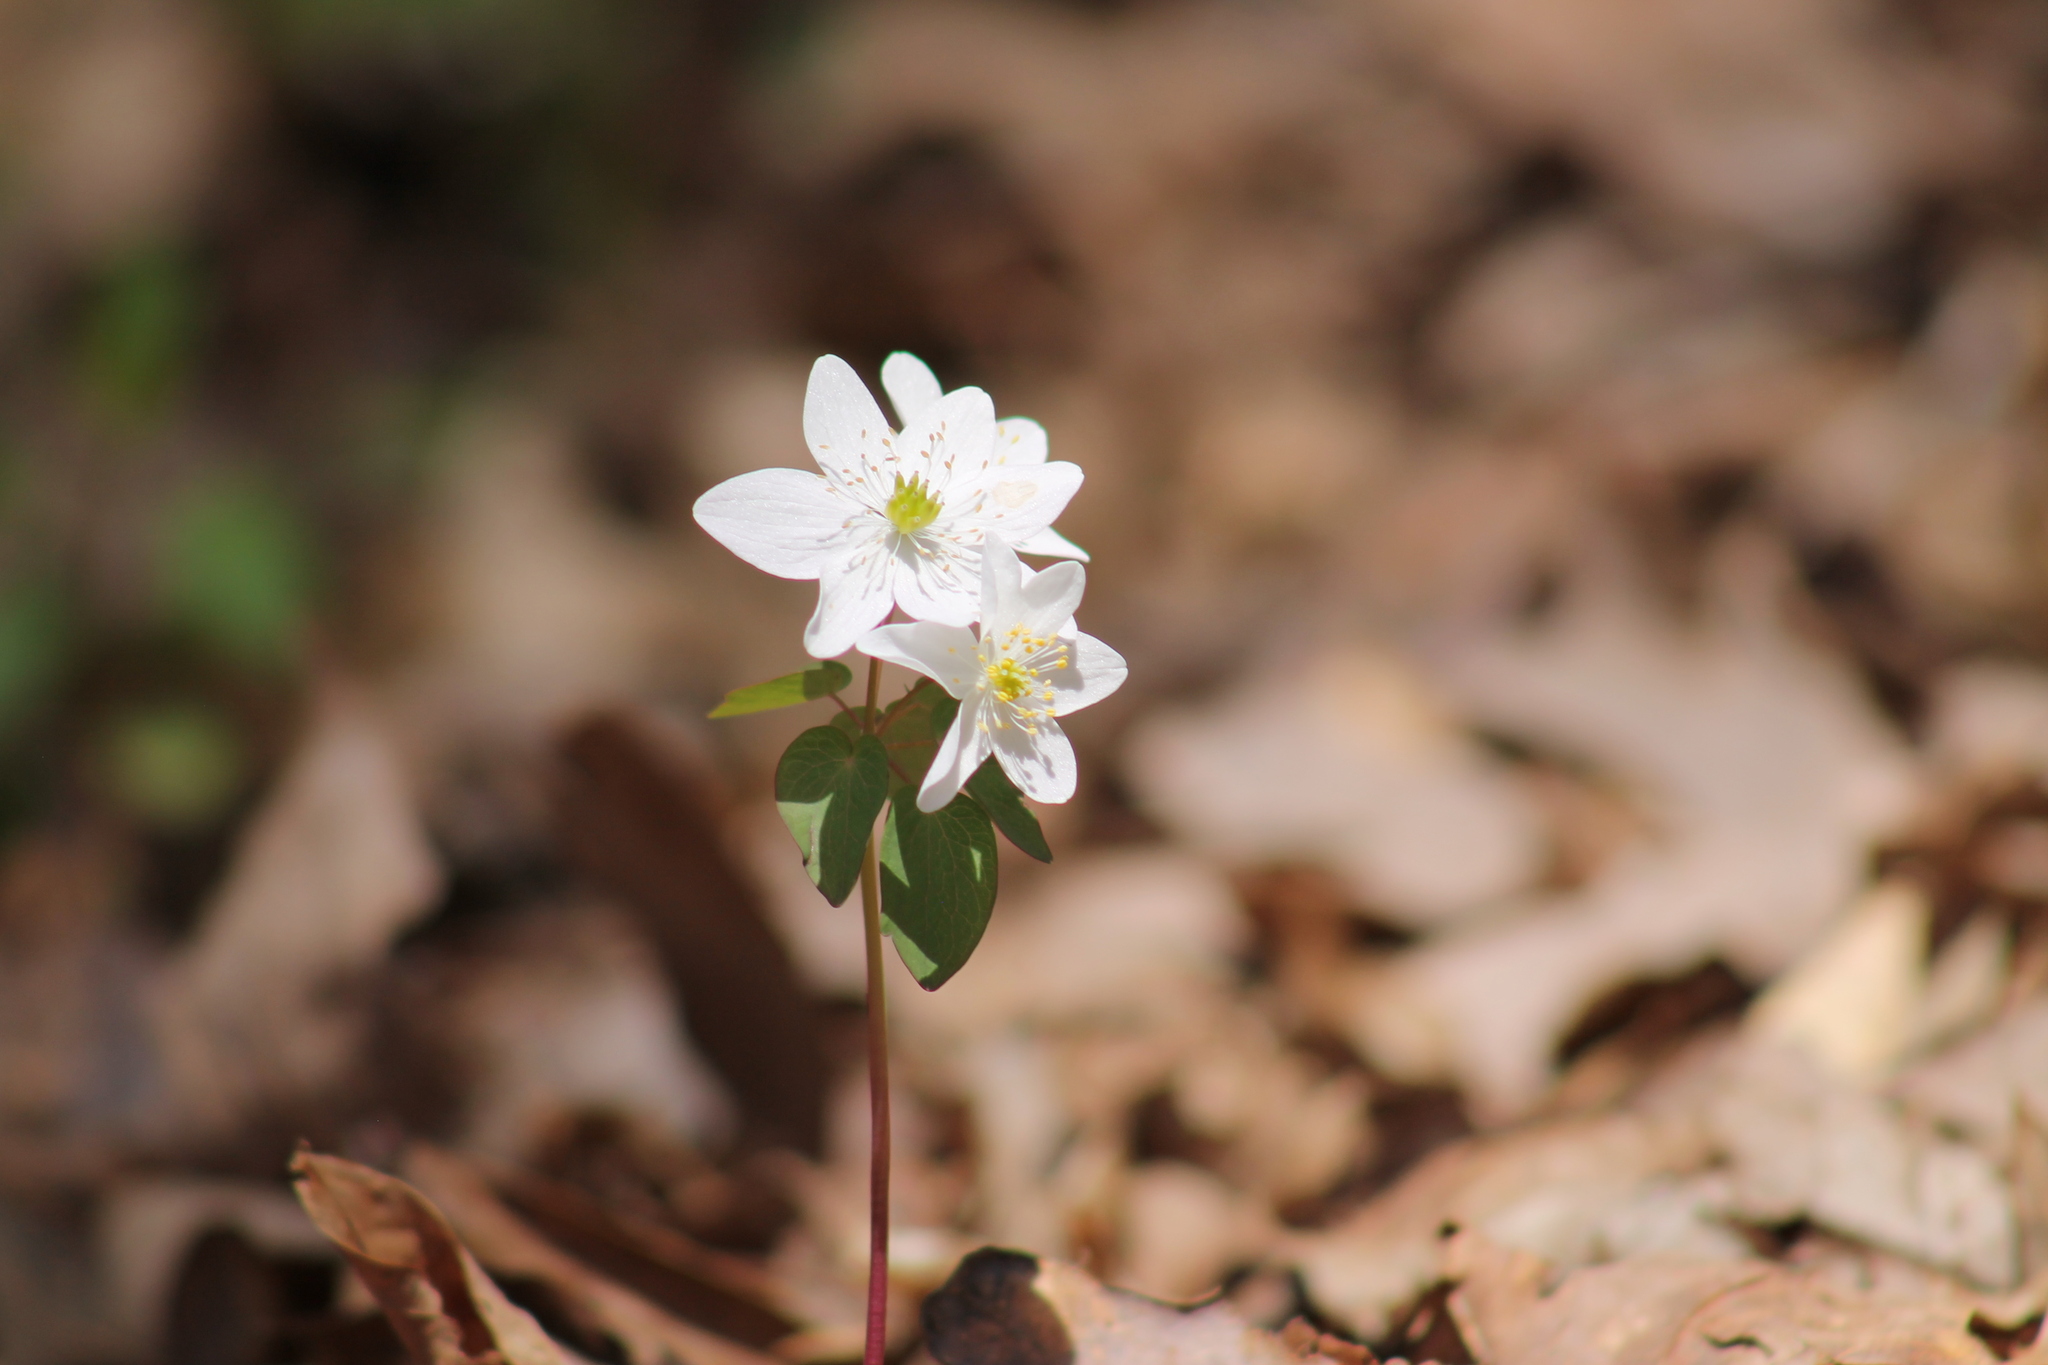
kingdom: Plantae
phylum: Tracheophyta
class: Magnoliopsida
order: Ranunculales
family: Ranunculaceae
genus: Thalictrum
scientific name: Thalictrum thalictroides
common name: Rue-anemone
